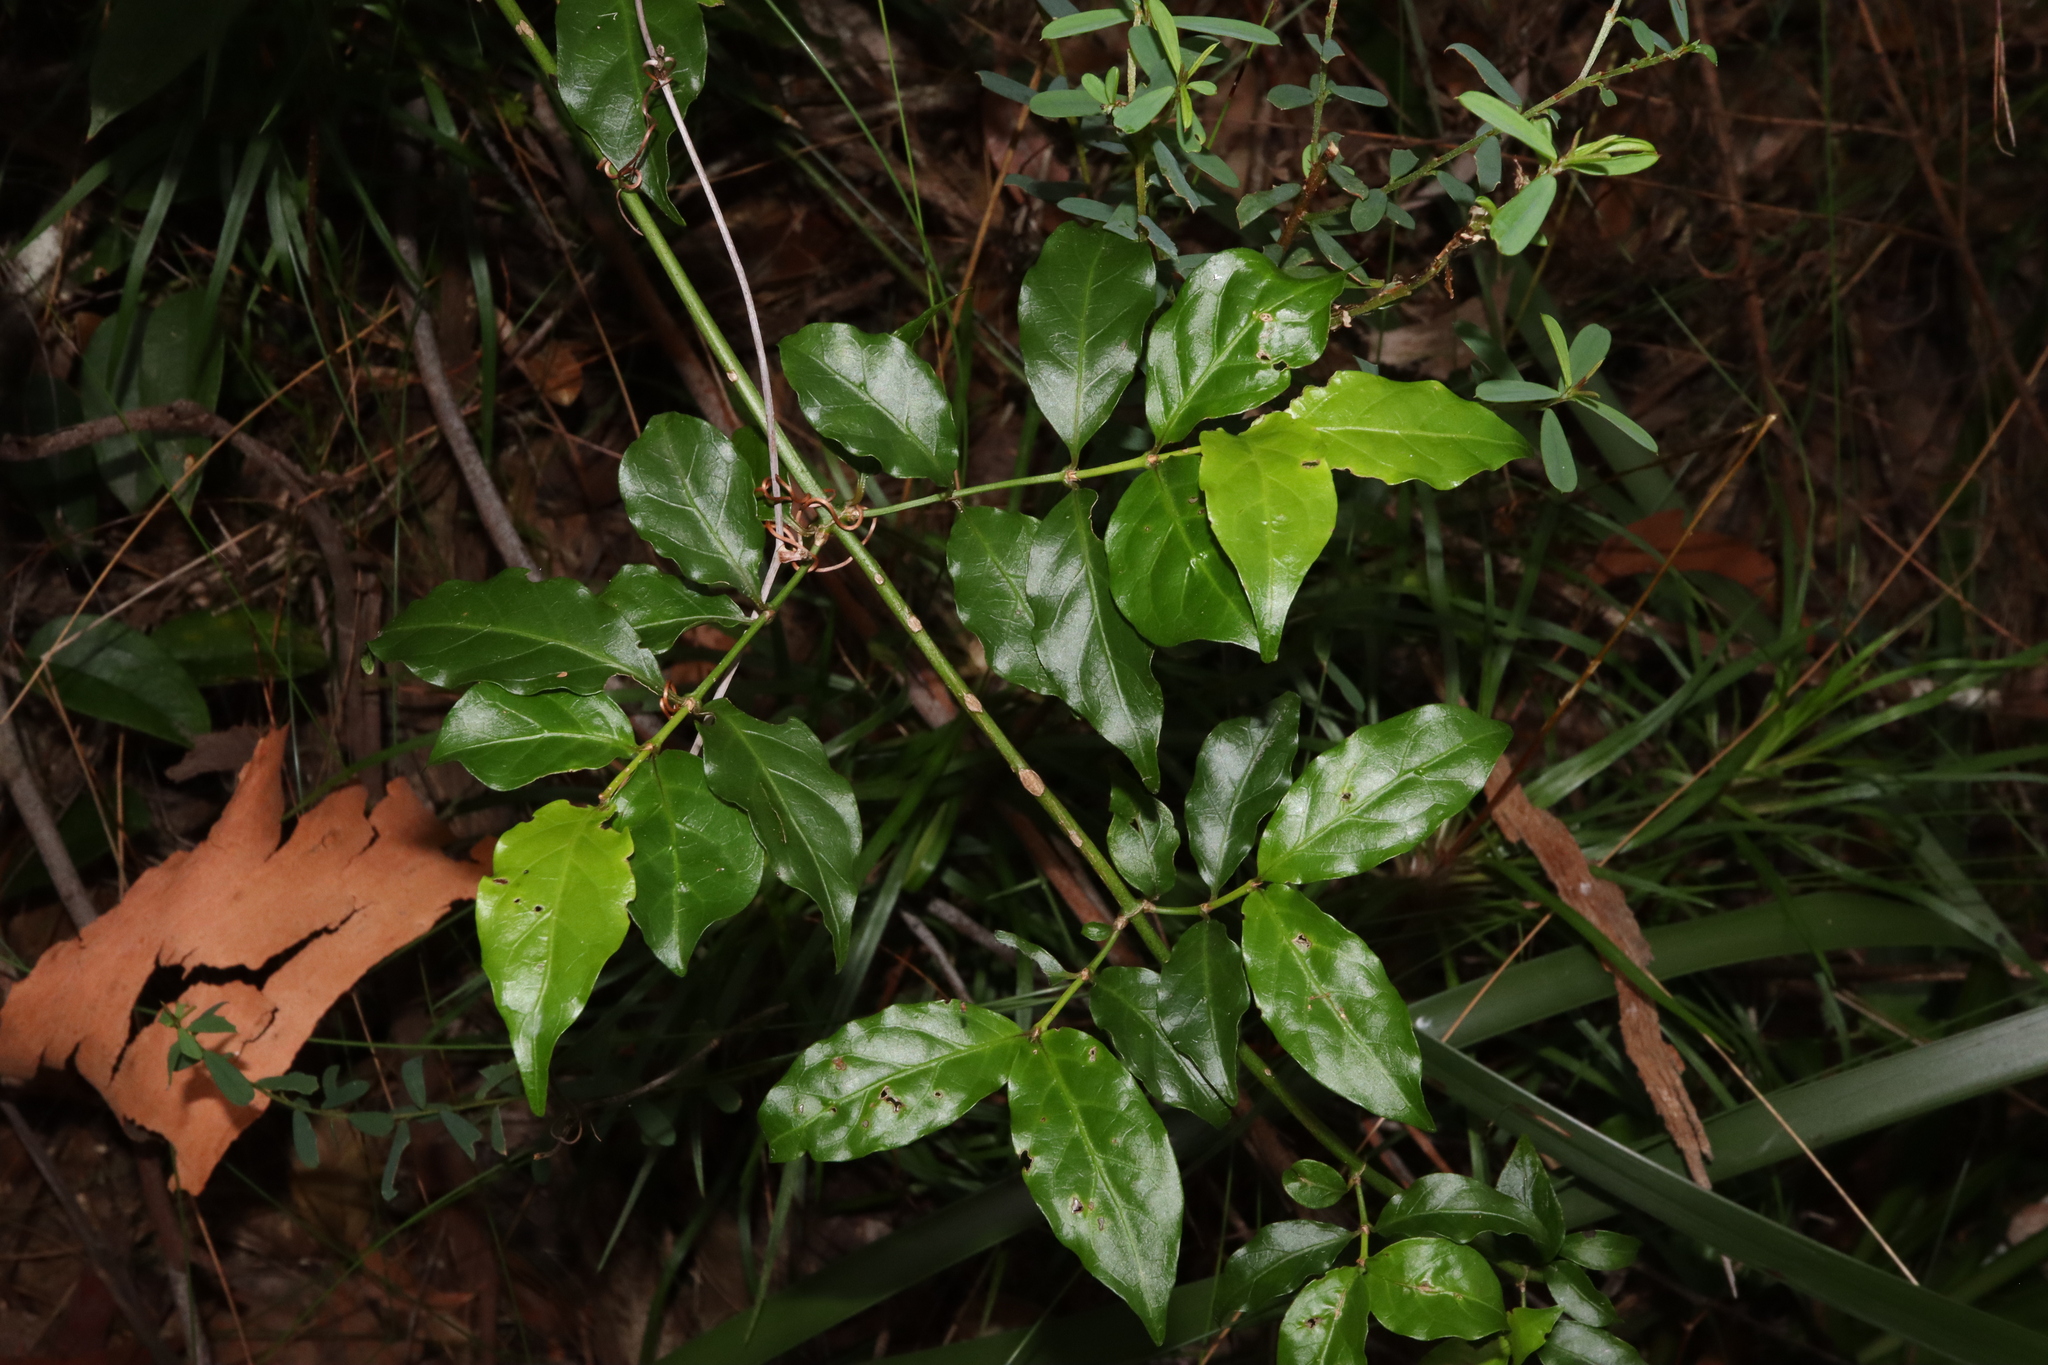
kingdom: Plantae
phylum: Tracheophyta
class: Magnoliopsida
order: Gentianales
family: Rubiaceae
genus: Gynochthodes
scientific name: Gynochthodes jasminoides
